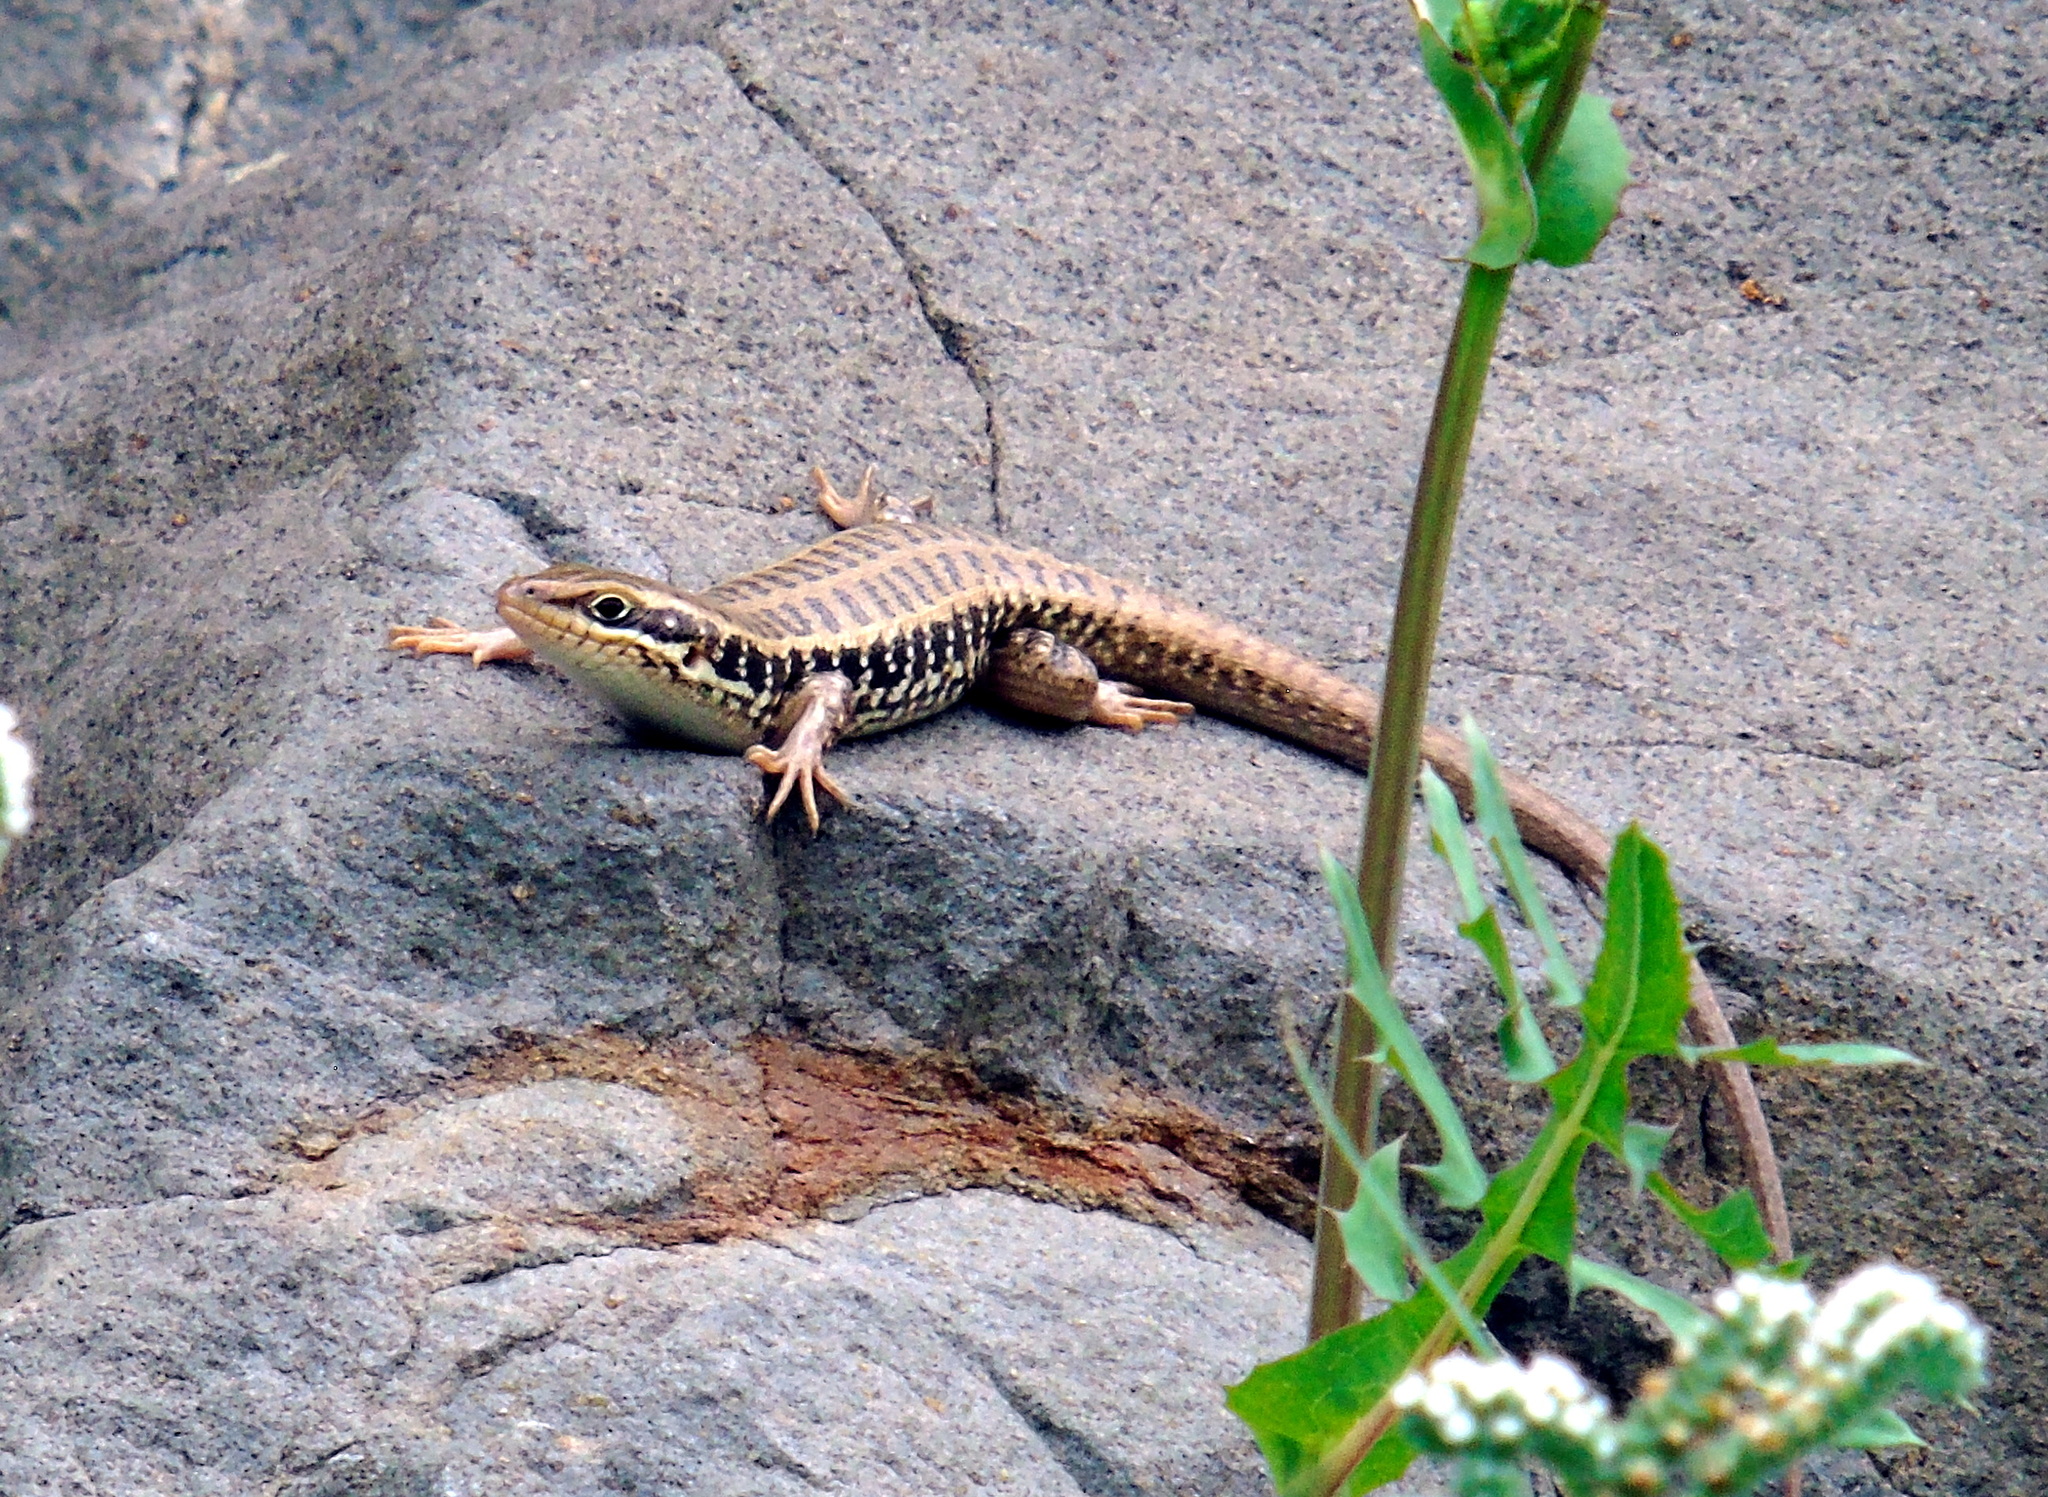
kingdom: Animalia
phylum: Chordata
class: Squamata
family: Scincidae
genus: Heremites
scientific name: Heremites auratus
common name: Golden grass mabuya
